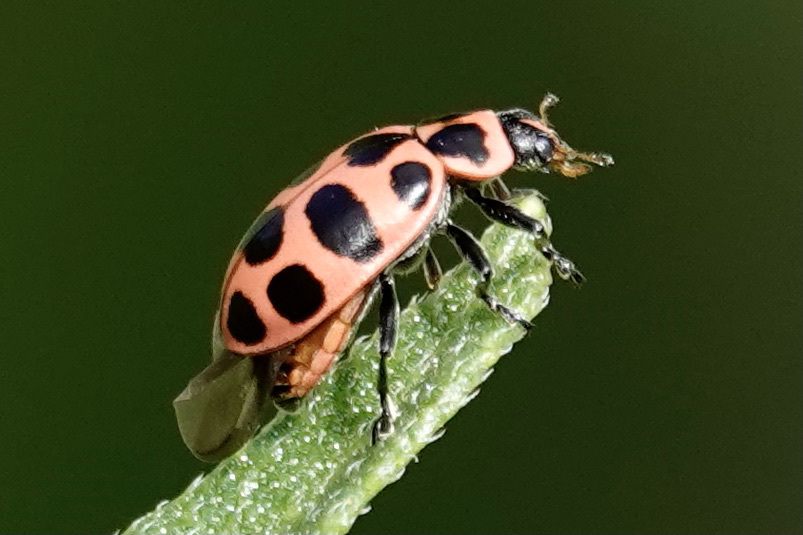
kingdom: Animalia
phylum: Arthropoda
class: Insecta
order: Coleoptera
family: Coccinellidae
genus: Coleomegilla
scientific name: Coleomegilla maculata
